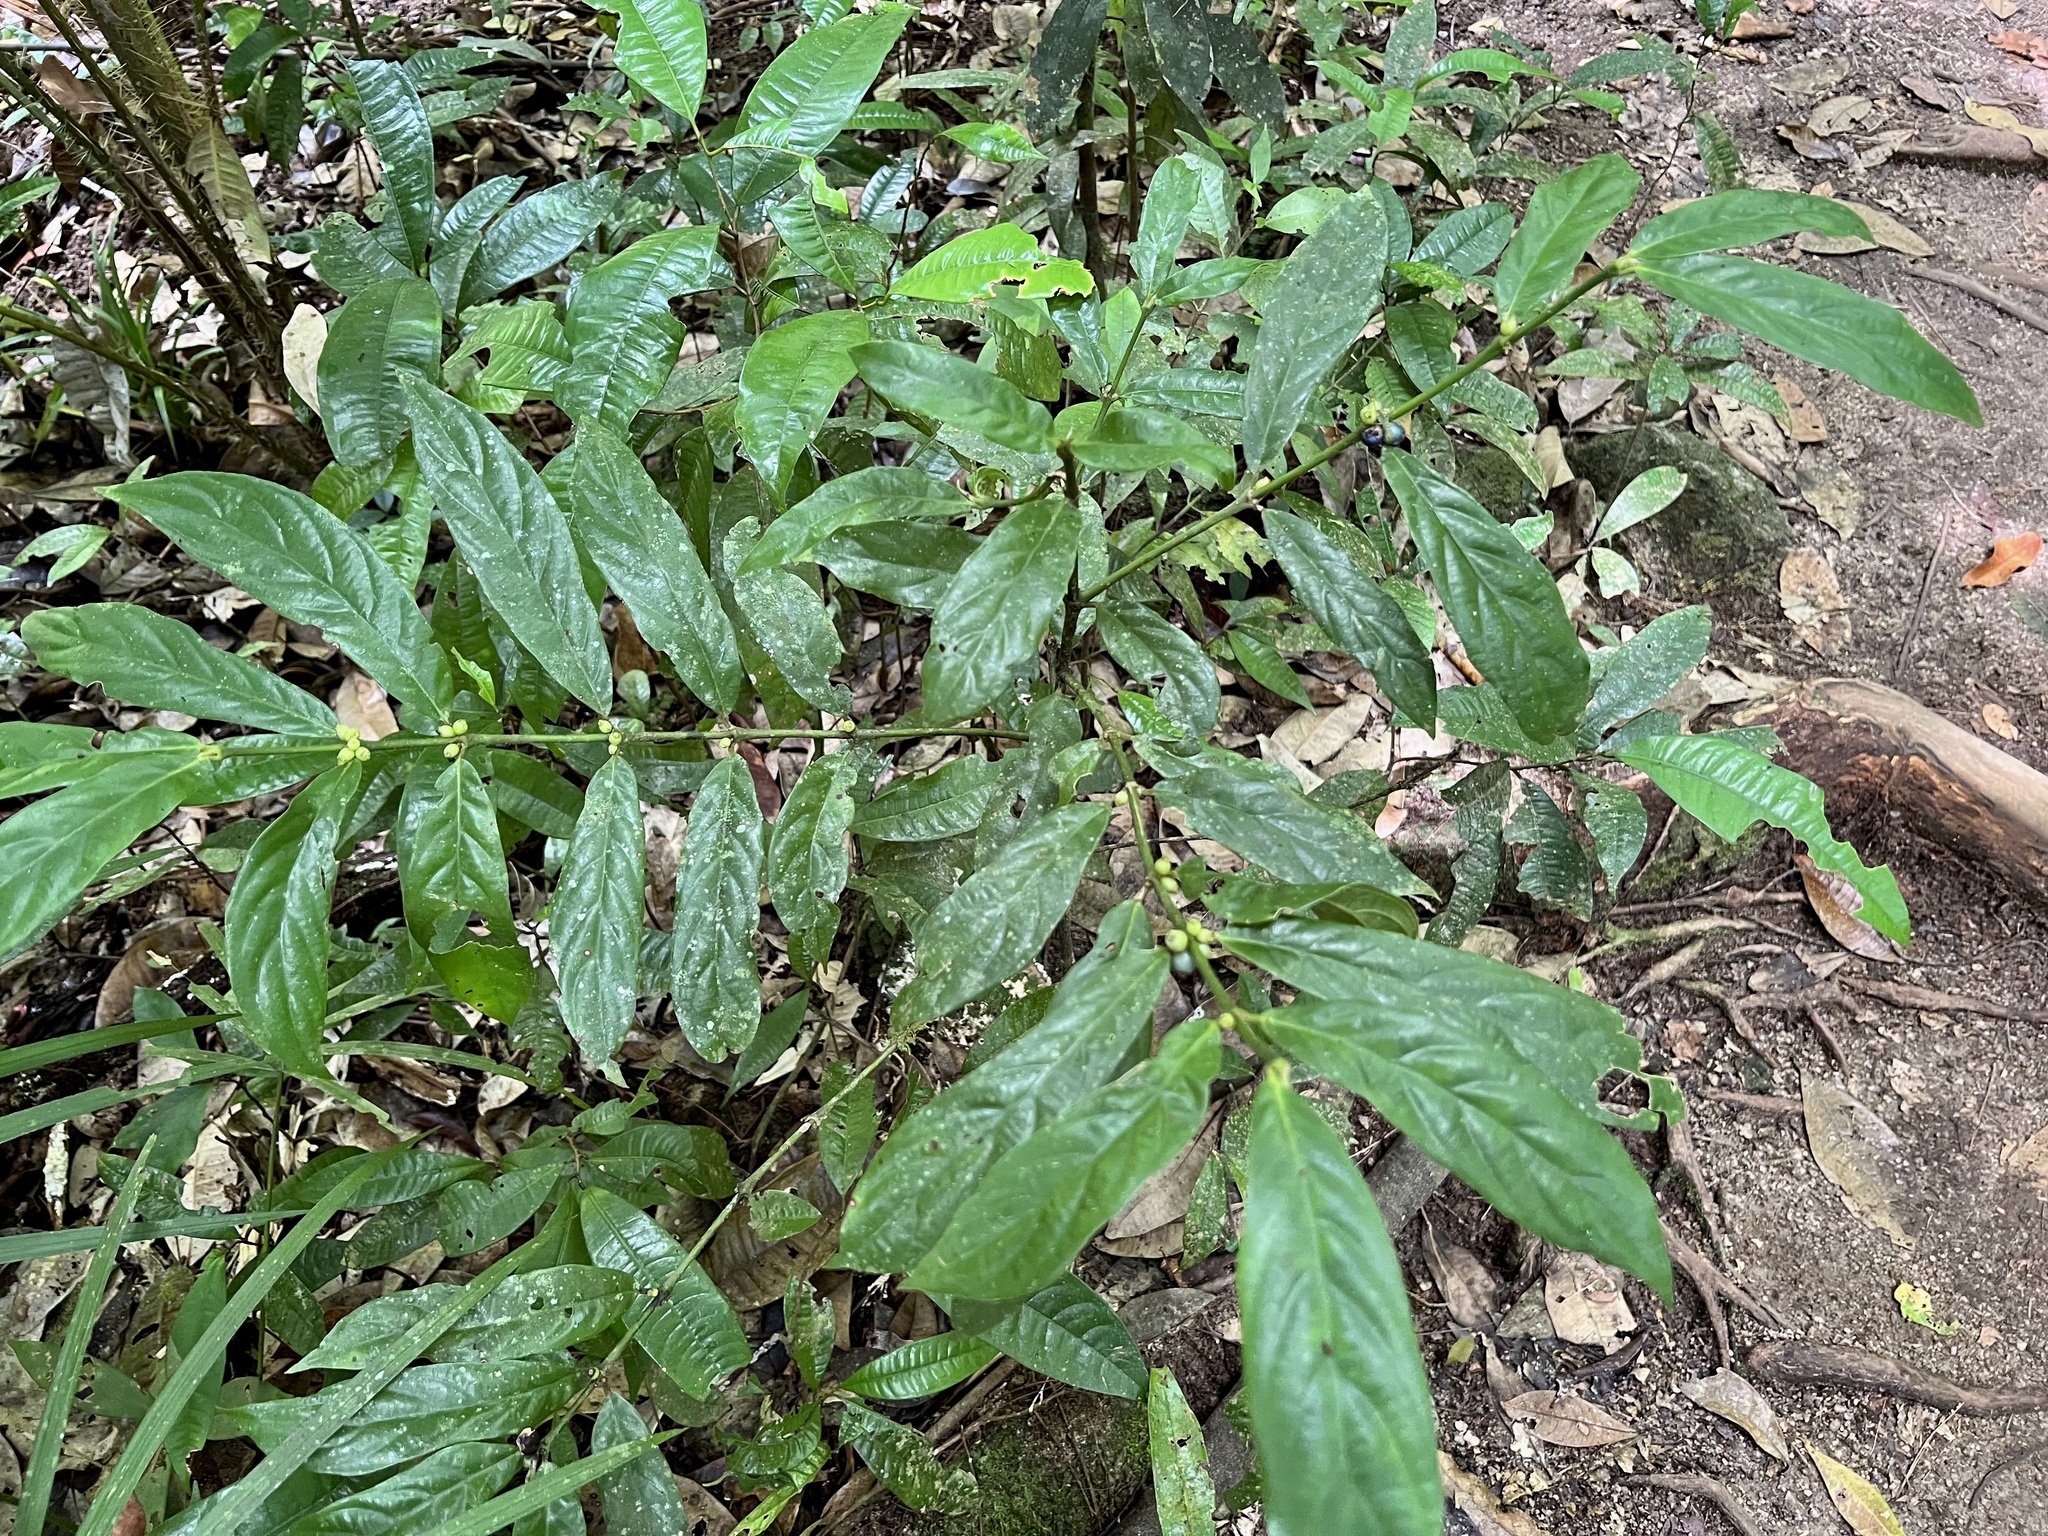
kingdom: Plantae
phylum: Tracheophyta
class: Magnoliopsida
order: Gentianales
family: Rubiaceae
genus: Lasianthus
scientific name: Lasianthus chlorocarpus
